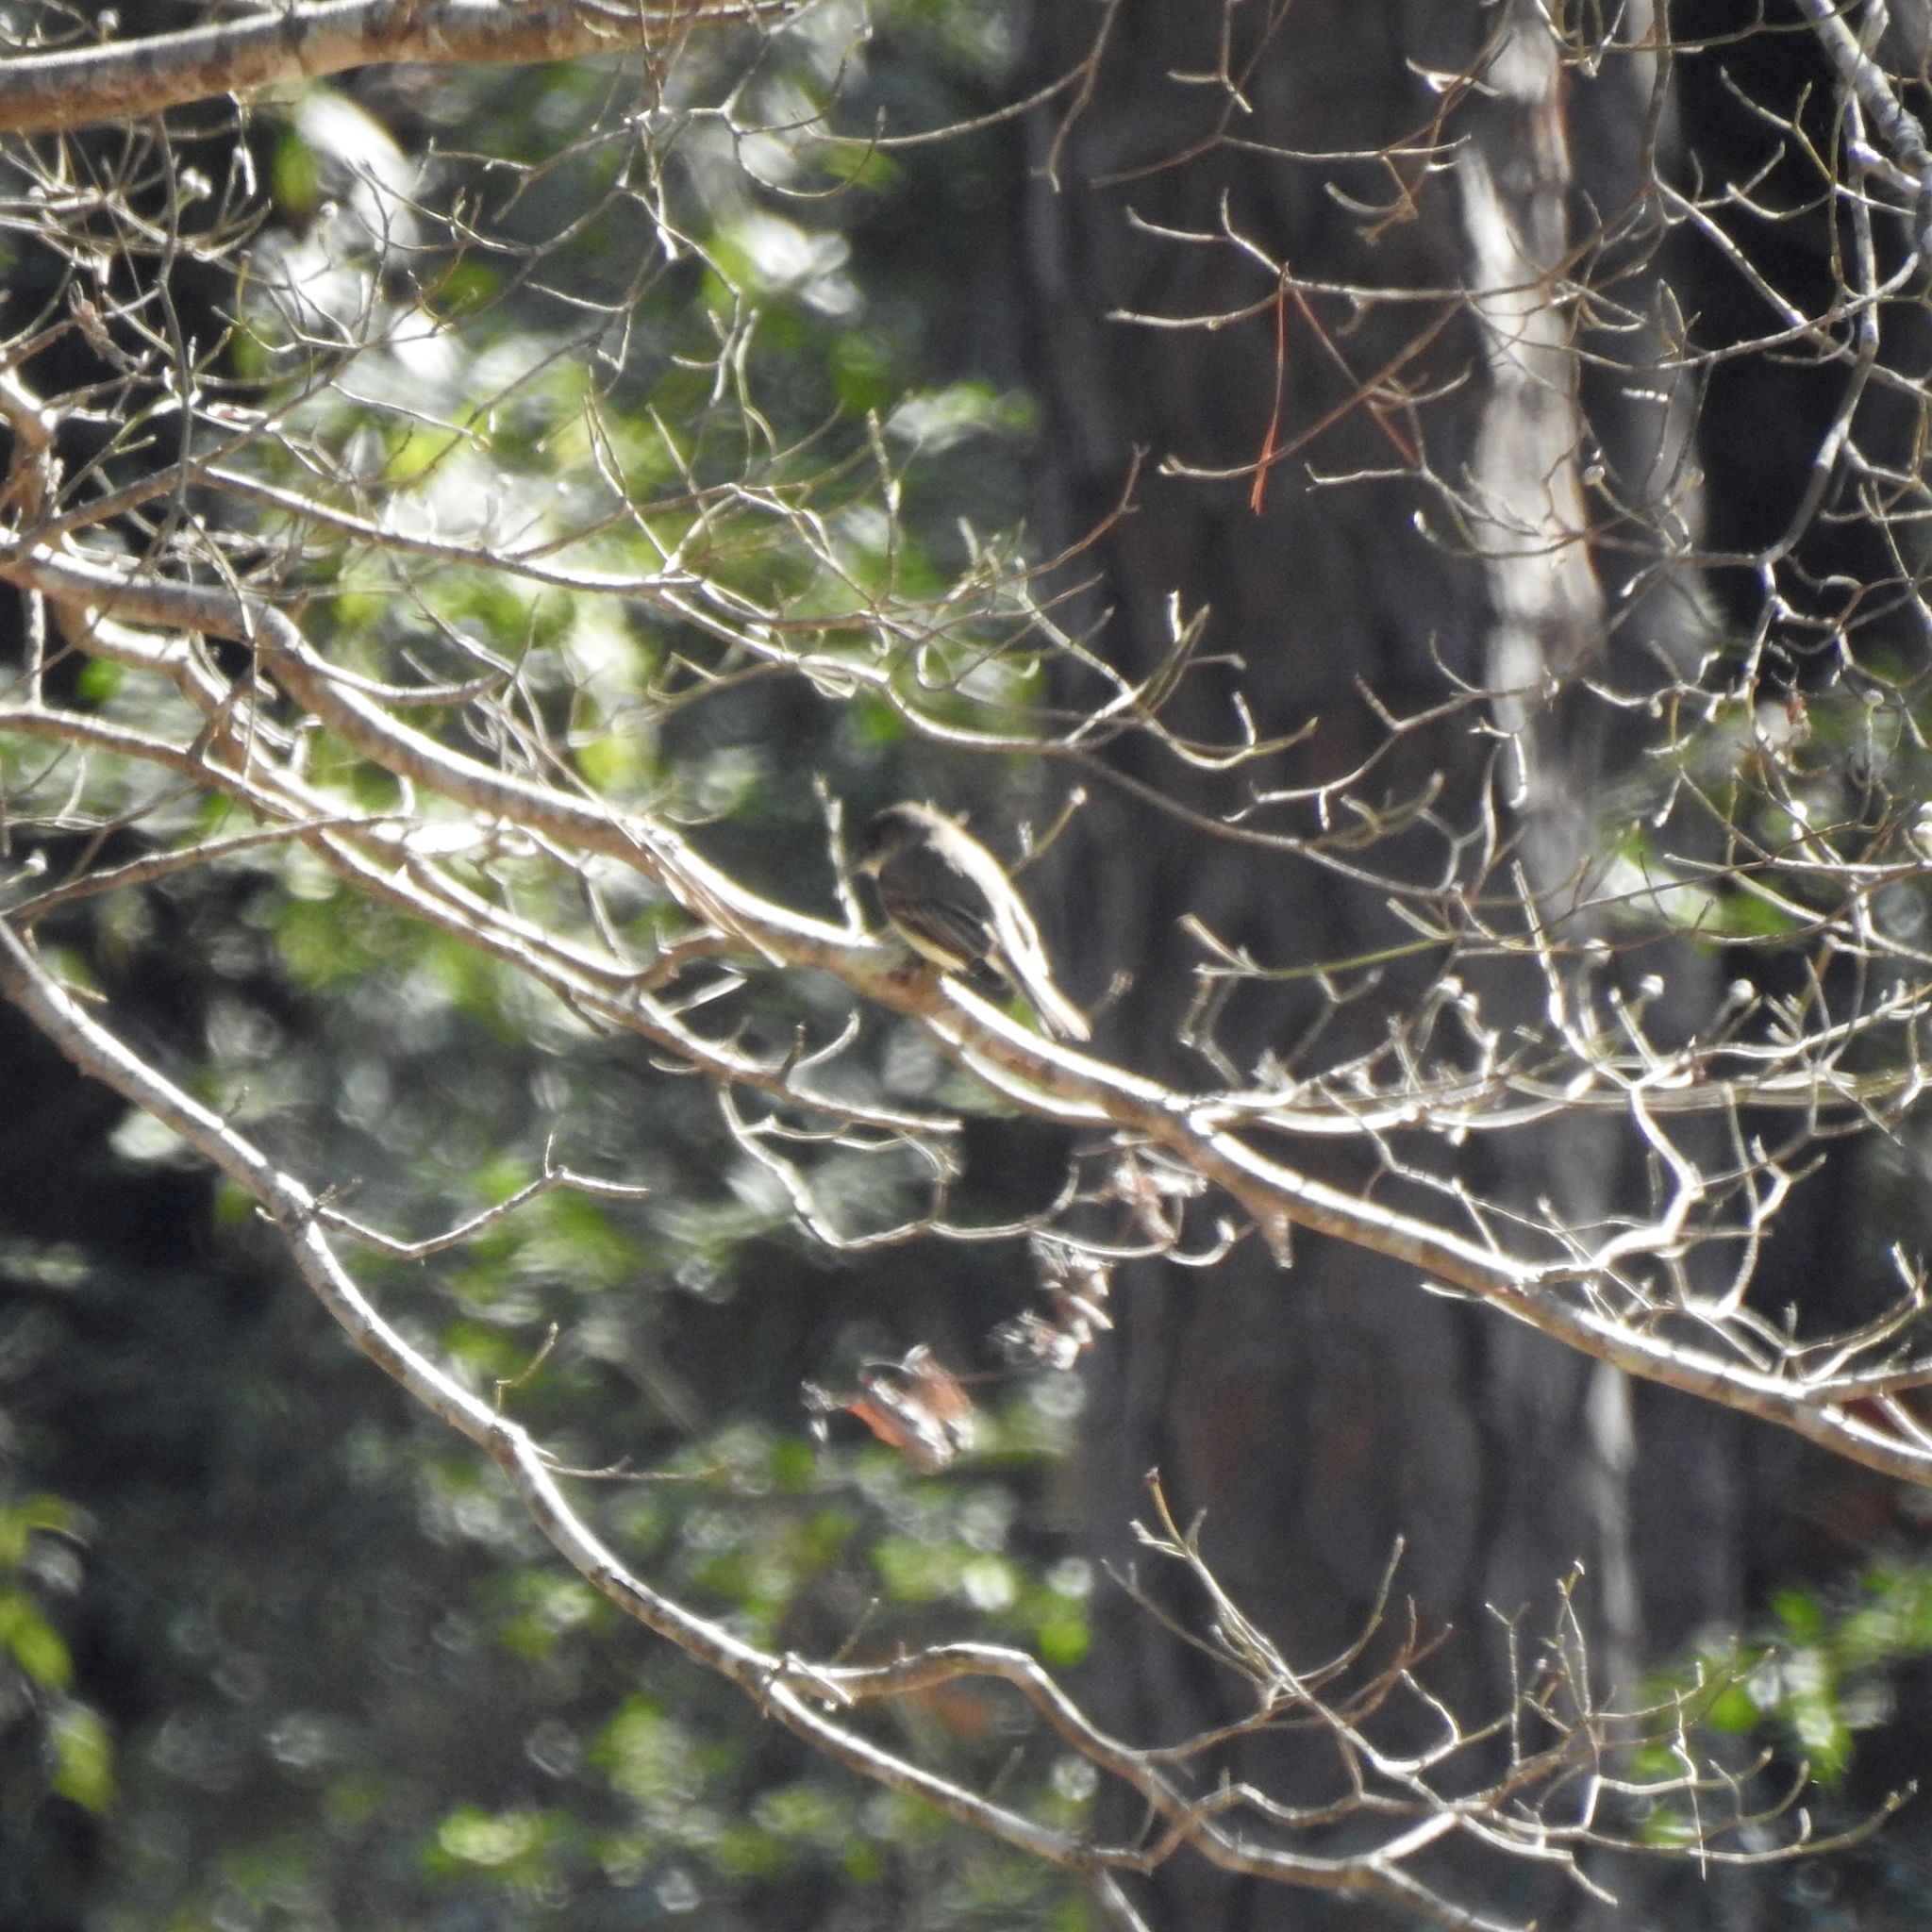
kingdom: Animalia
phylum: Chordata
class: Aves
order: Passeriformes
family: Tyrannidae
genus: Sayornis
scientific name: Sayornis phoebe
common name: Eastern phoebe
